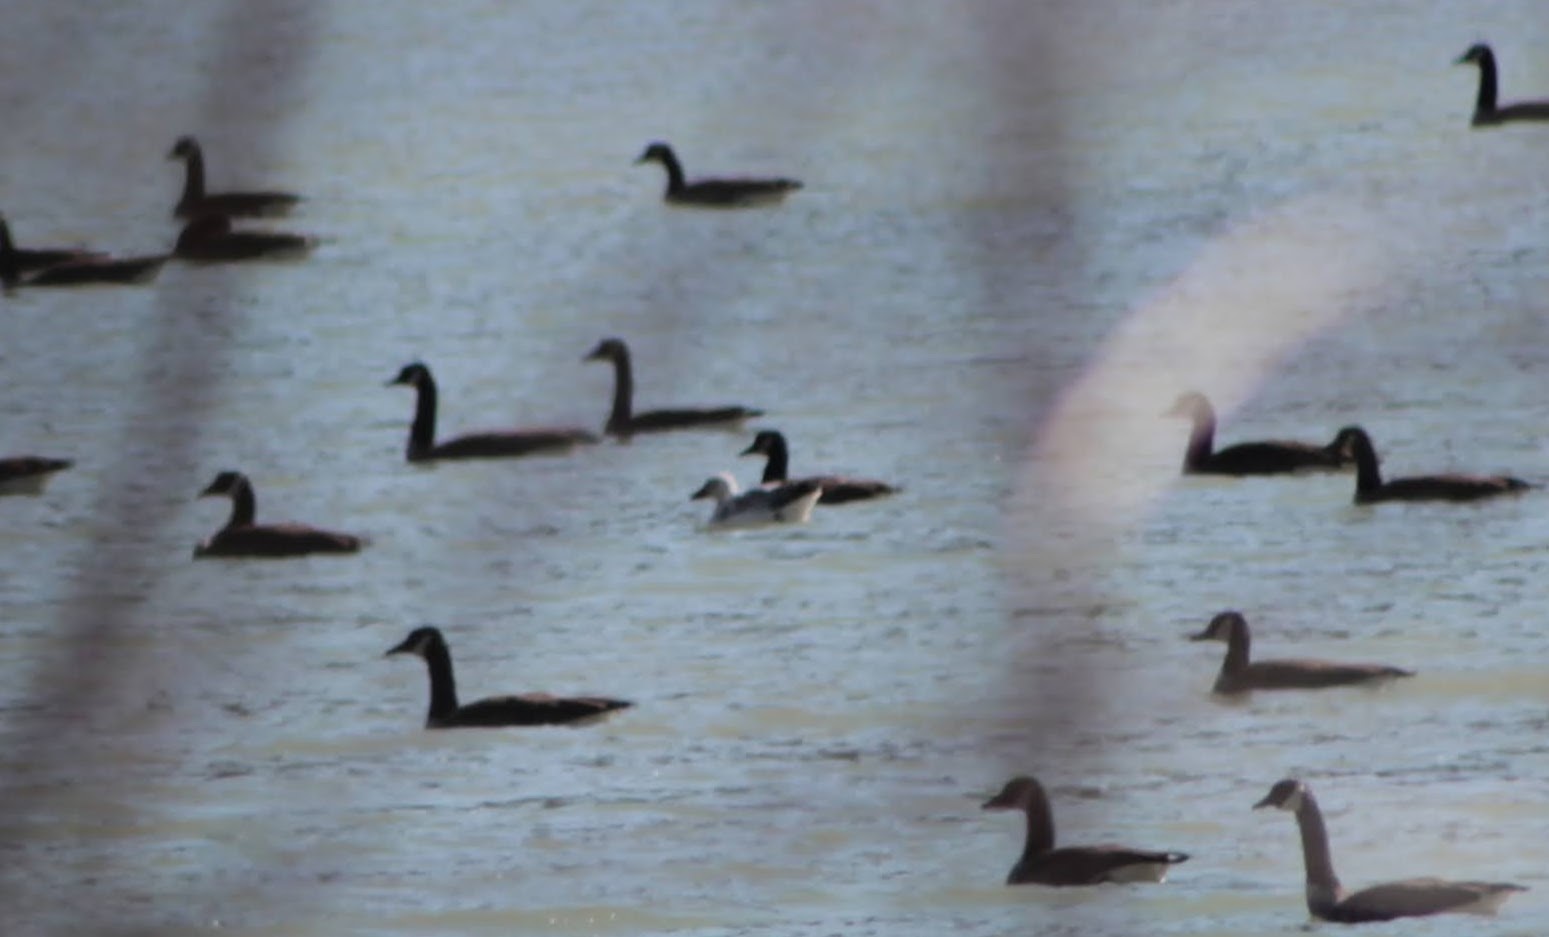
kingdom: Animalia
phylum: Chordata
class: Aves
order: Anseriformes
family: Anatidae
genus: Anser
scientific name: Anser caerulescens
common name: Snow goose
